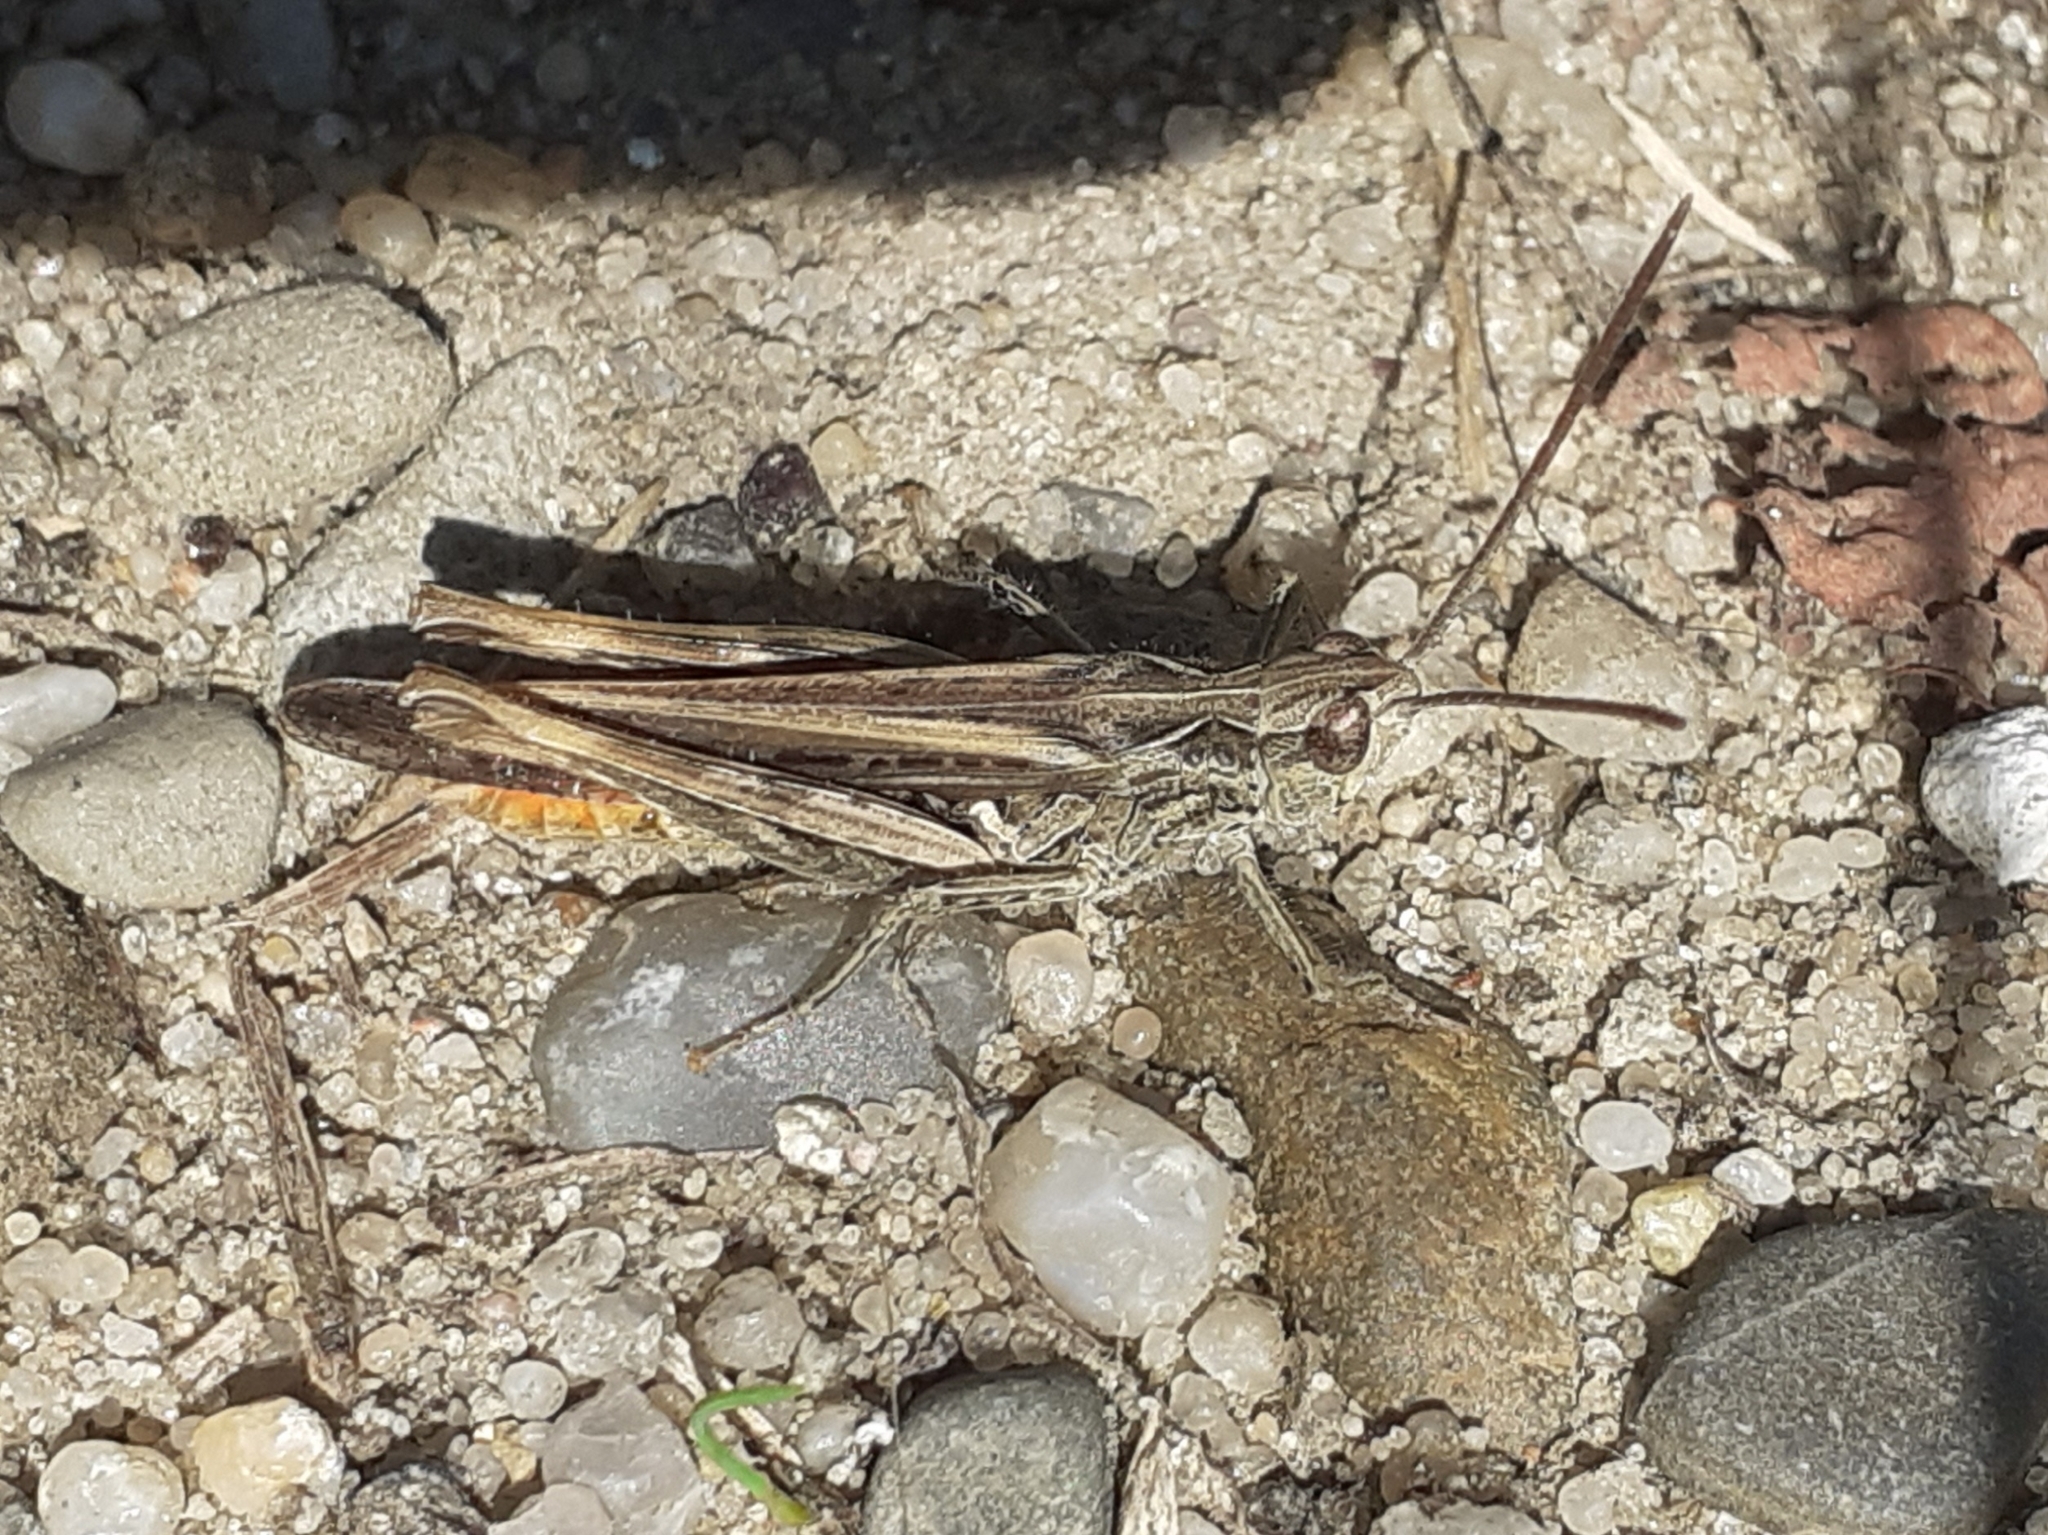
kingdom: Animalia
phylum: Arthropoda
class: Insecta
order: Orthoptera
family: Acrididae
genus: Chorthippus
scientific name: Chorthippus brunneus
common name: Field grasshopper
